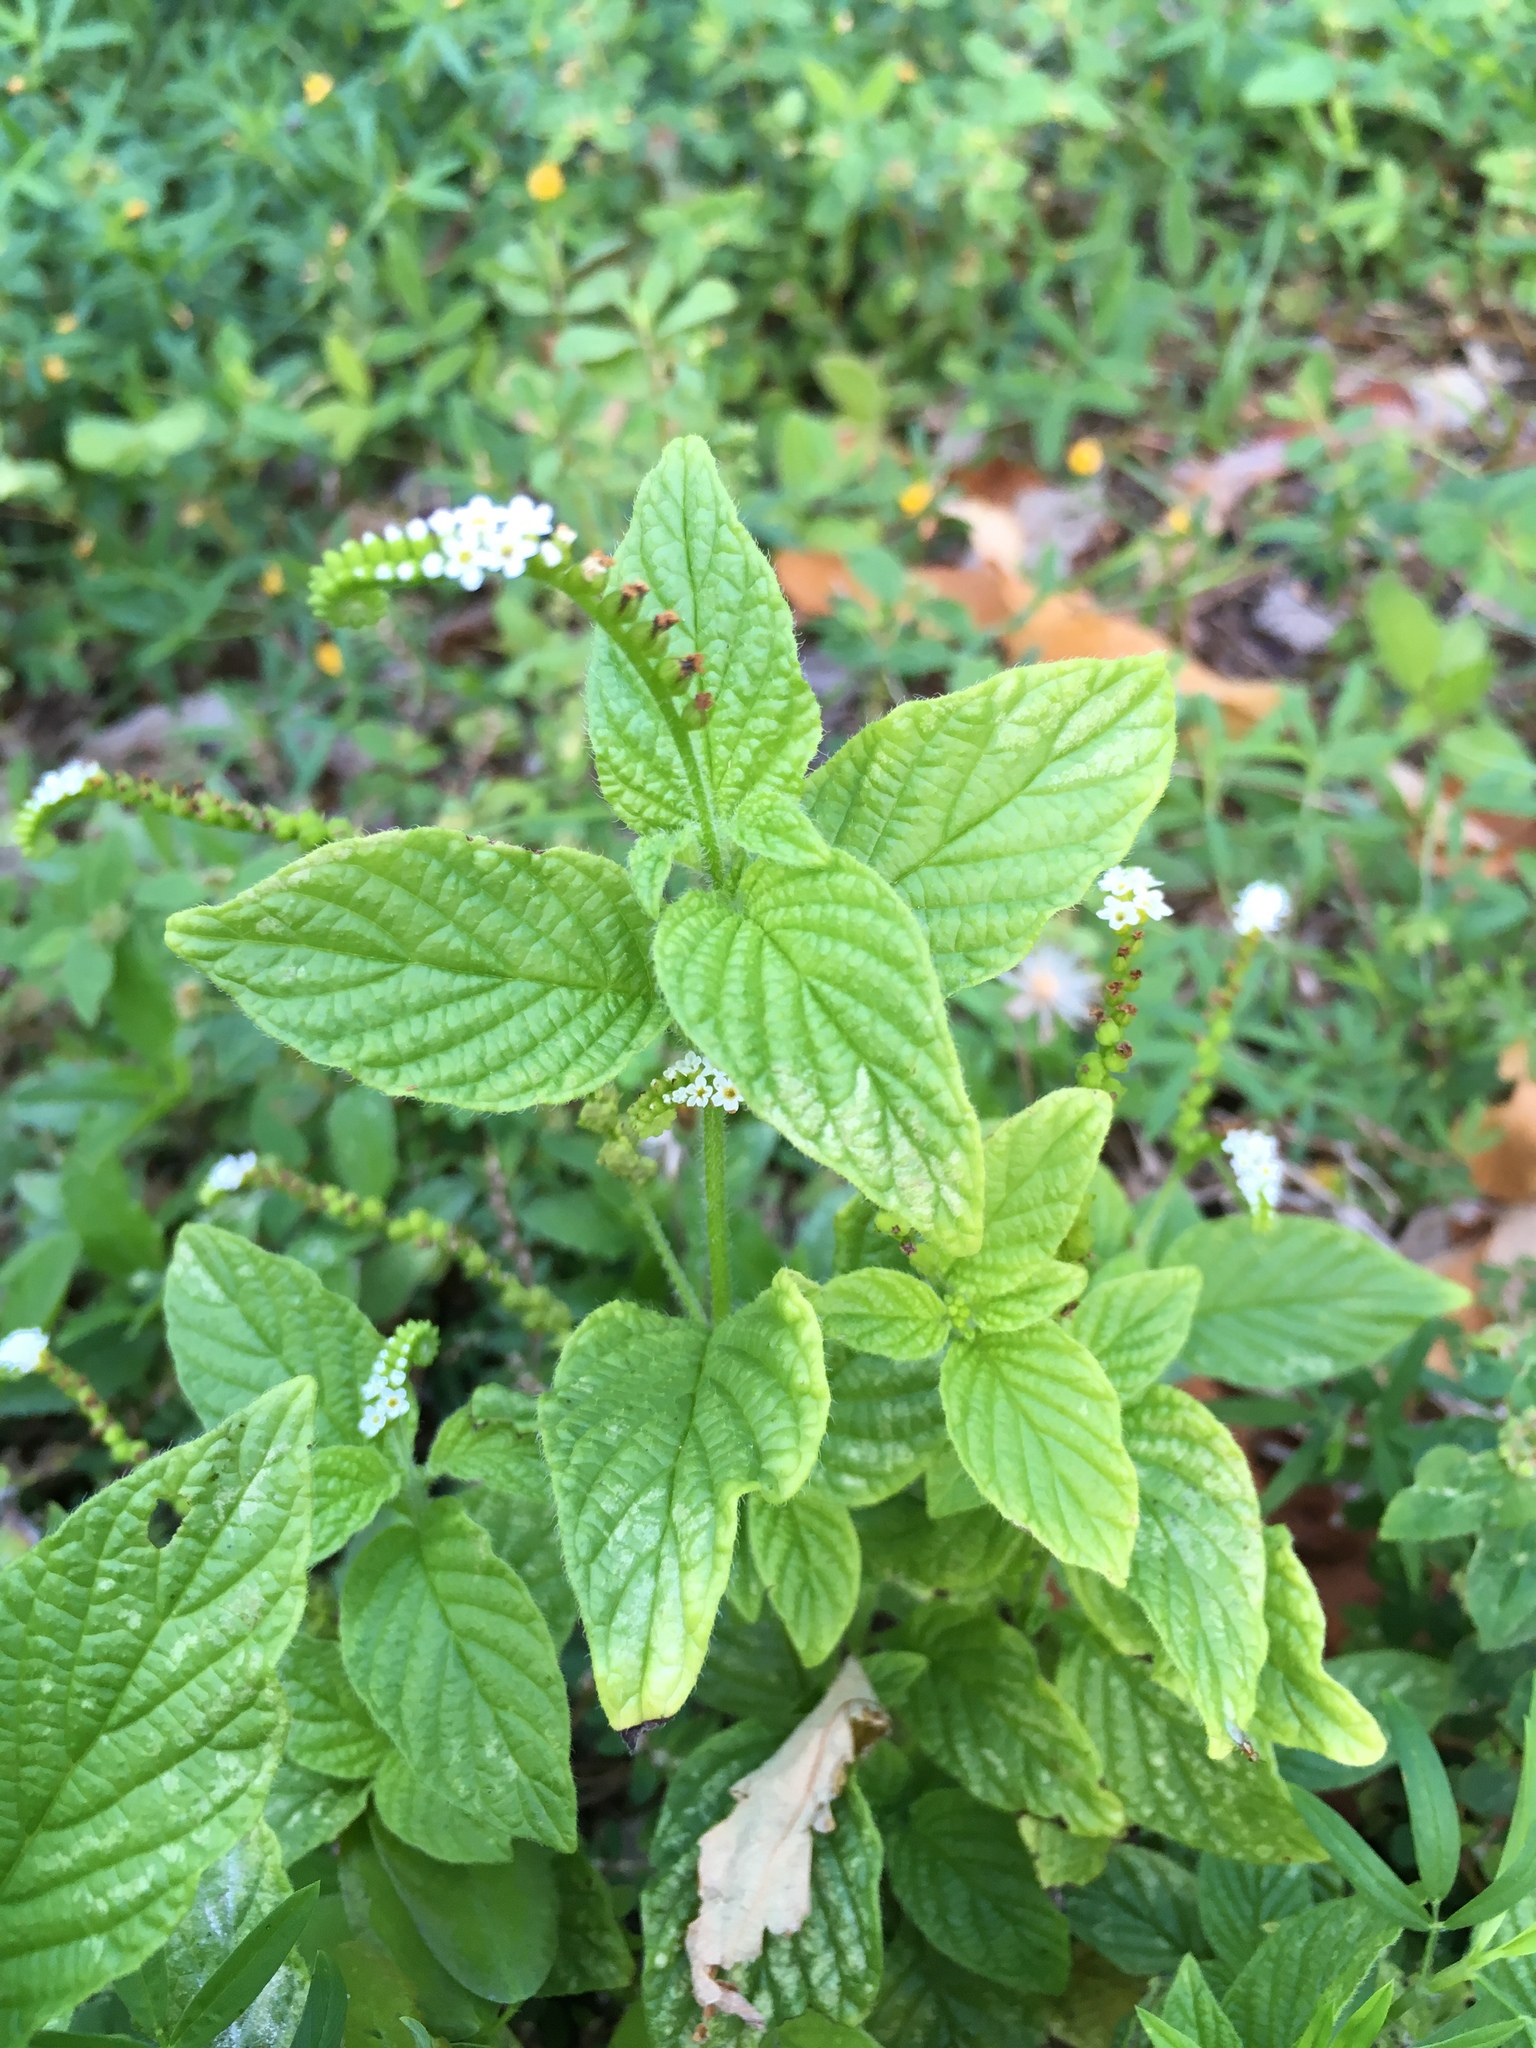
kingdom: Plantae
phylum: Tracheophyta
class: Magnoliopsida
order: Boraginales
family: Heliotropiaceae
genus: Heliotropium
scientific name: Heliotropium angiospermum
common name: Eye bright
